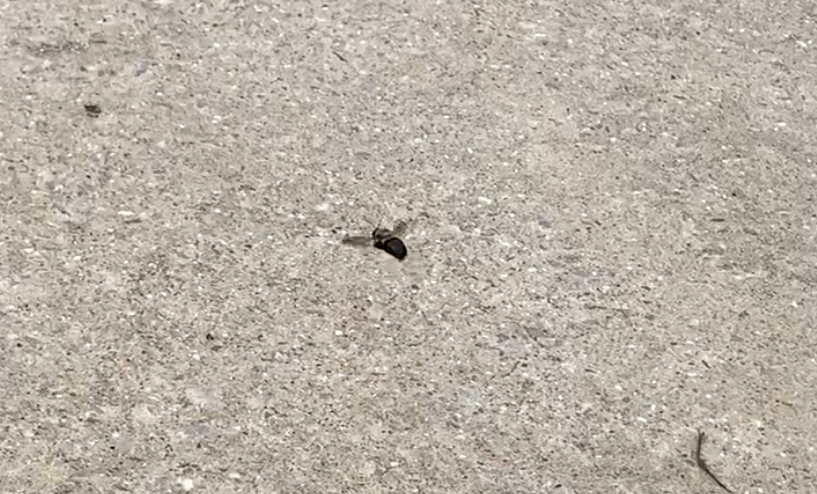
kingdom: Animalia
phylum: Arthropoda
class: Insecta
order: Hymenoptera
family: Apidae
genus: Xylocopa
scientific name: Xylocopa virginica
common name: Carpenter bee
